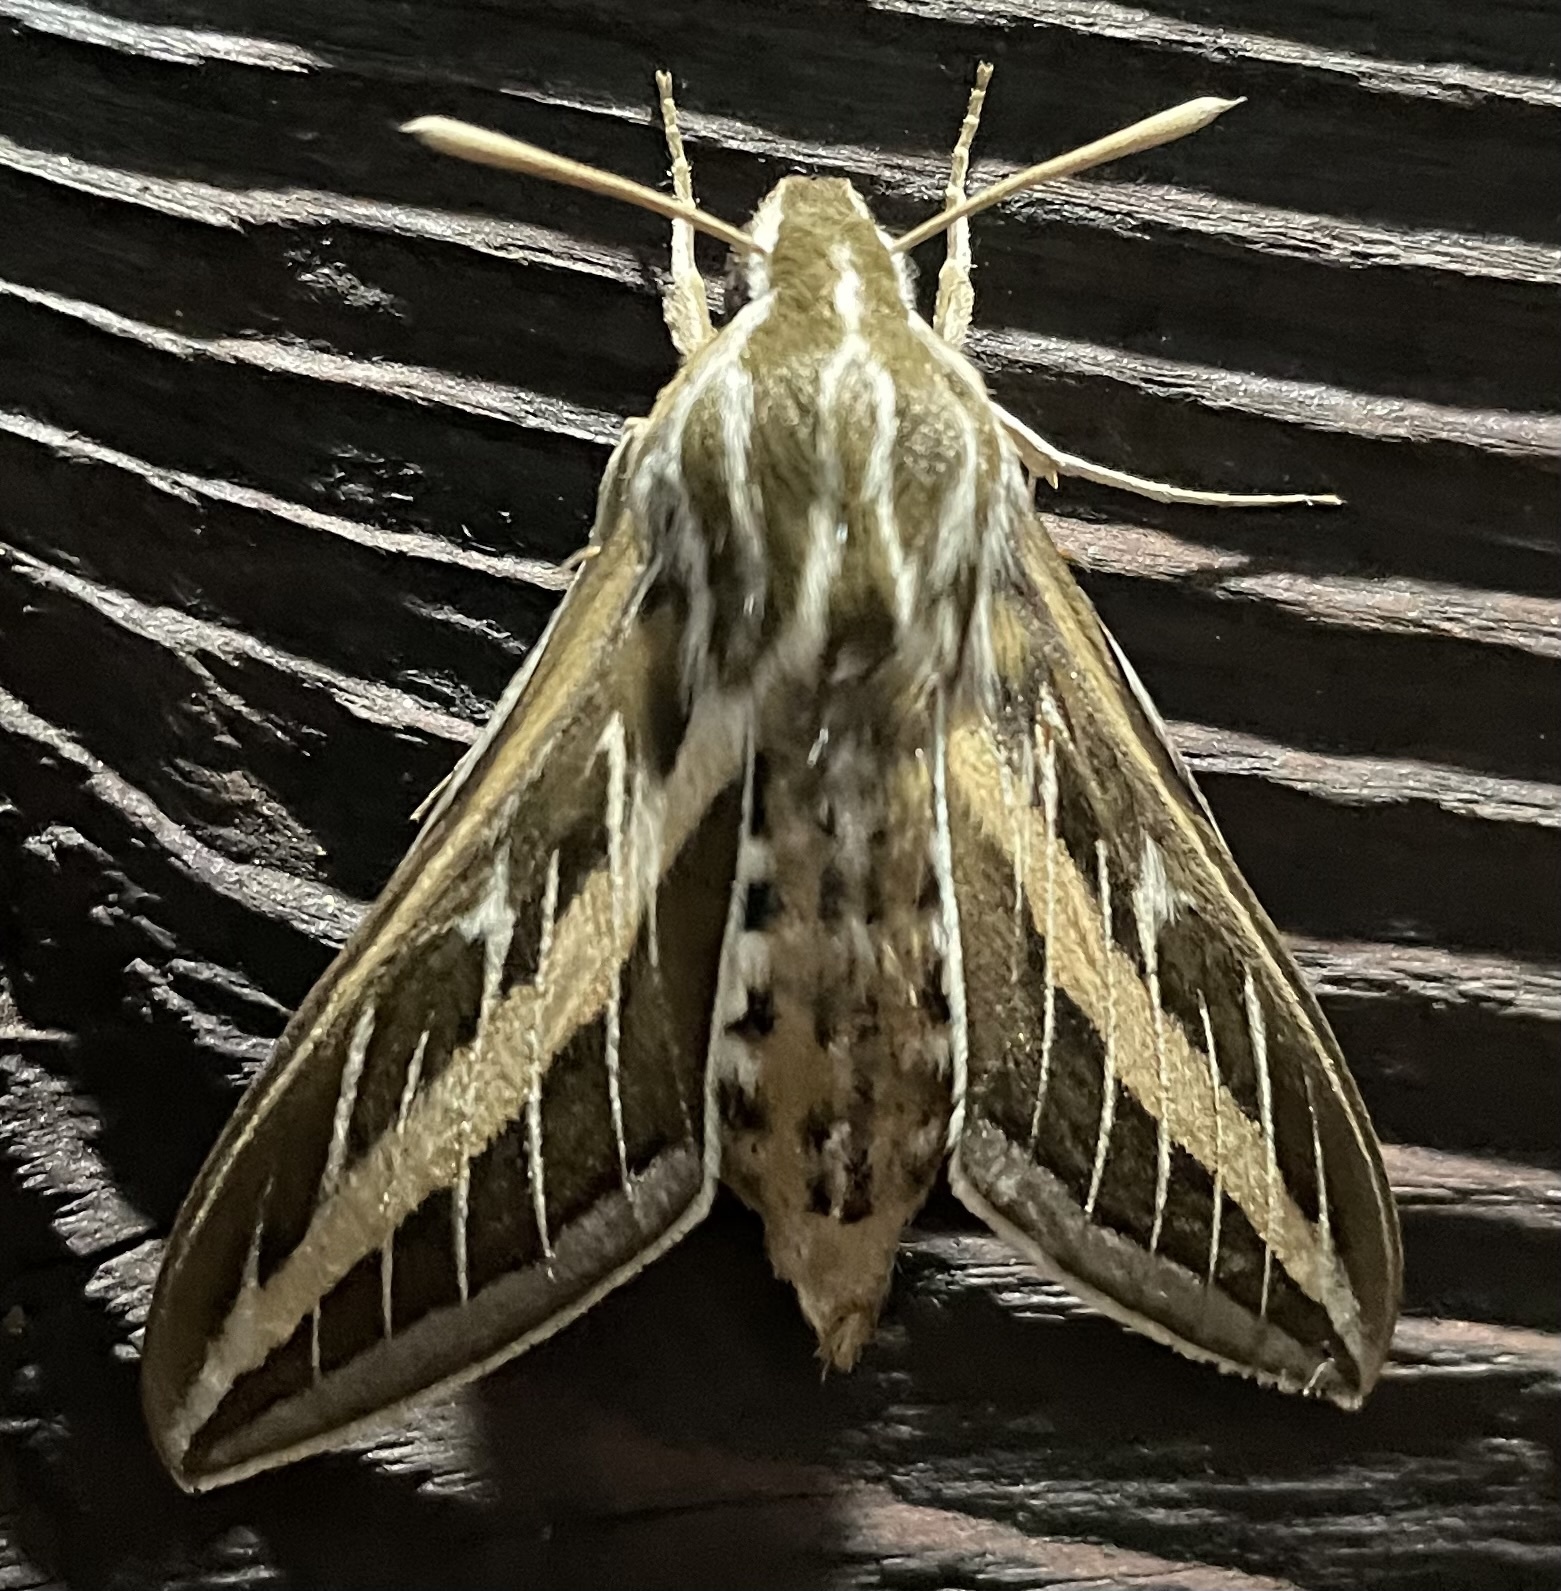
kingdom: Animalia
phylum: Arthropoda
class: Insecta
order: Lepidoptera
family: Sphingidae
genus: Hyles
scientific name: Hyles lineata
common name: White-lined sphinx
